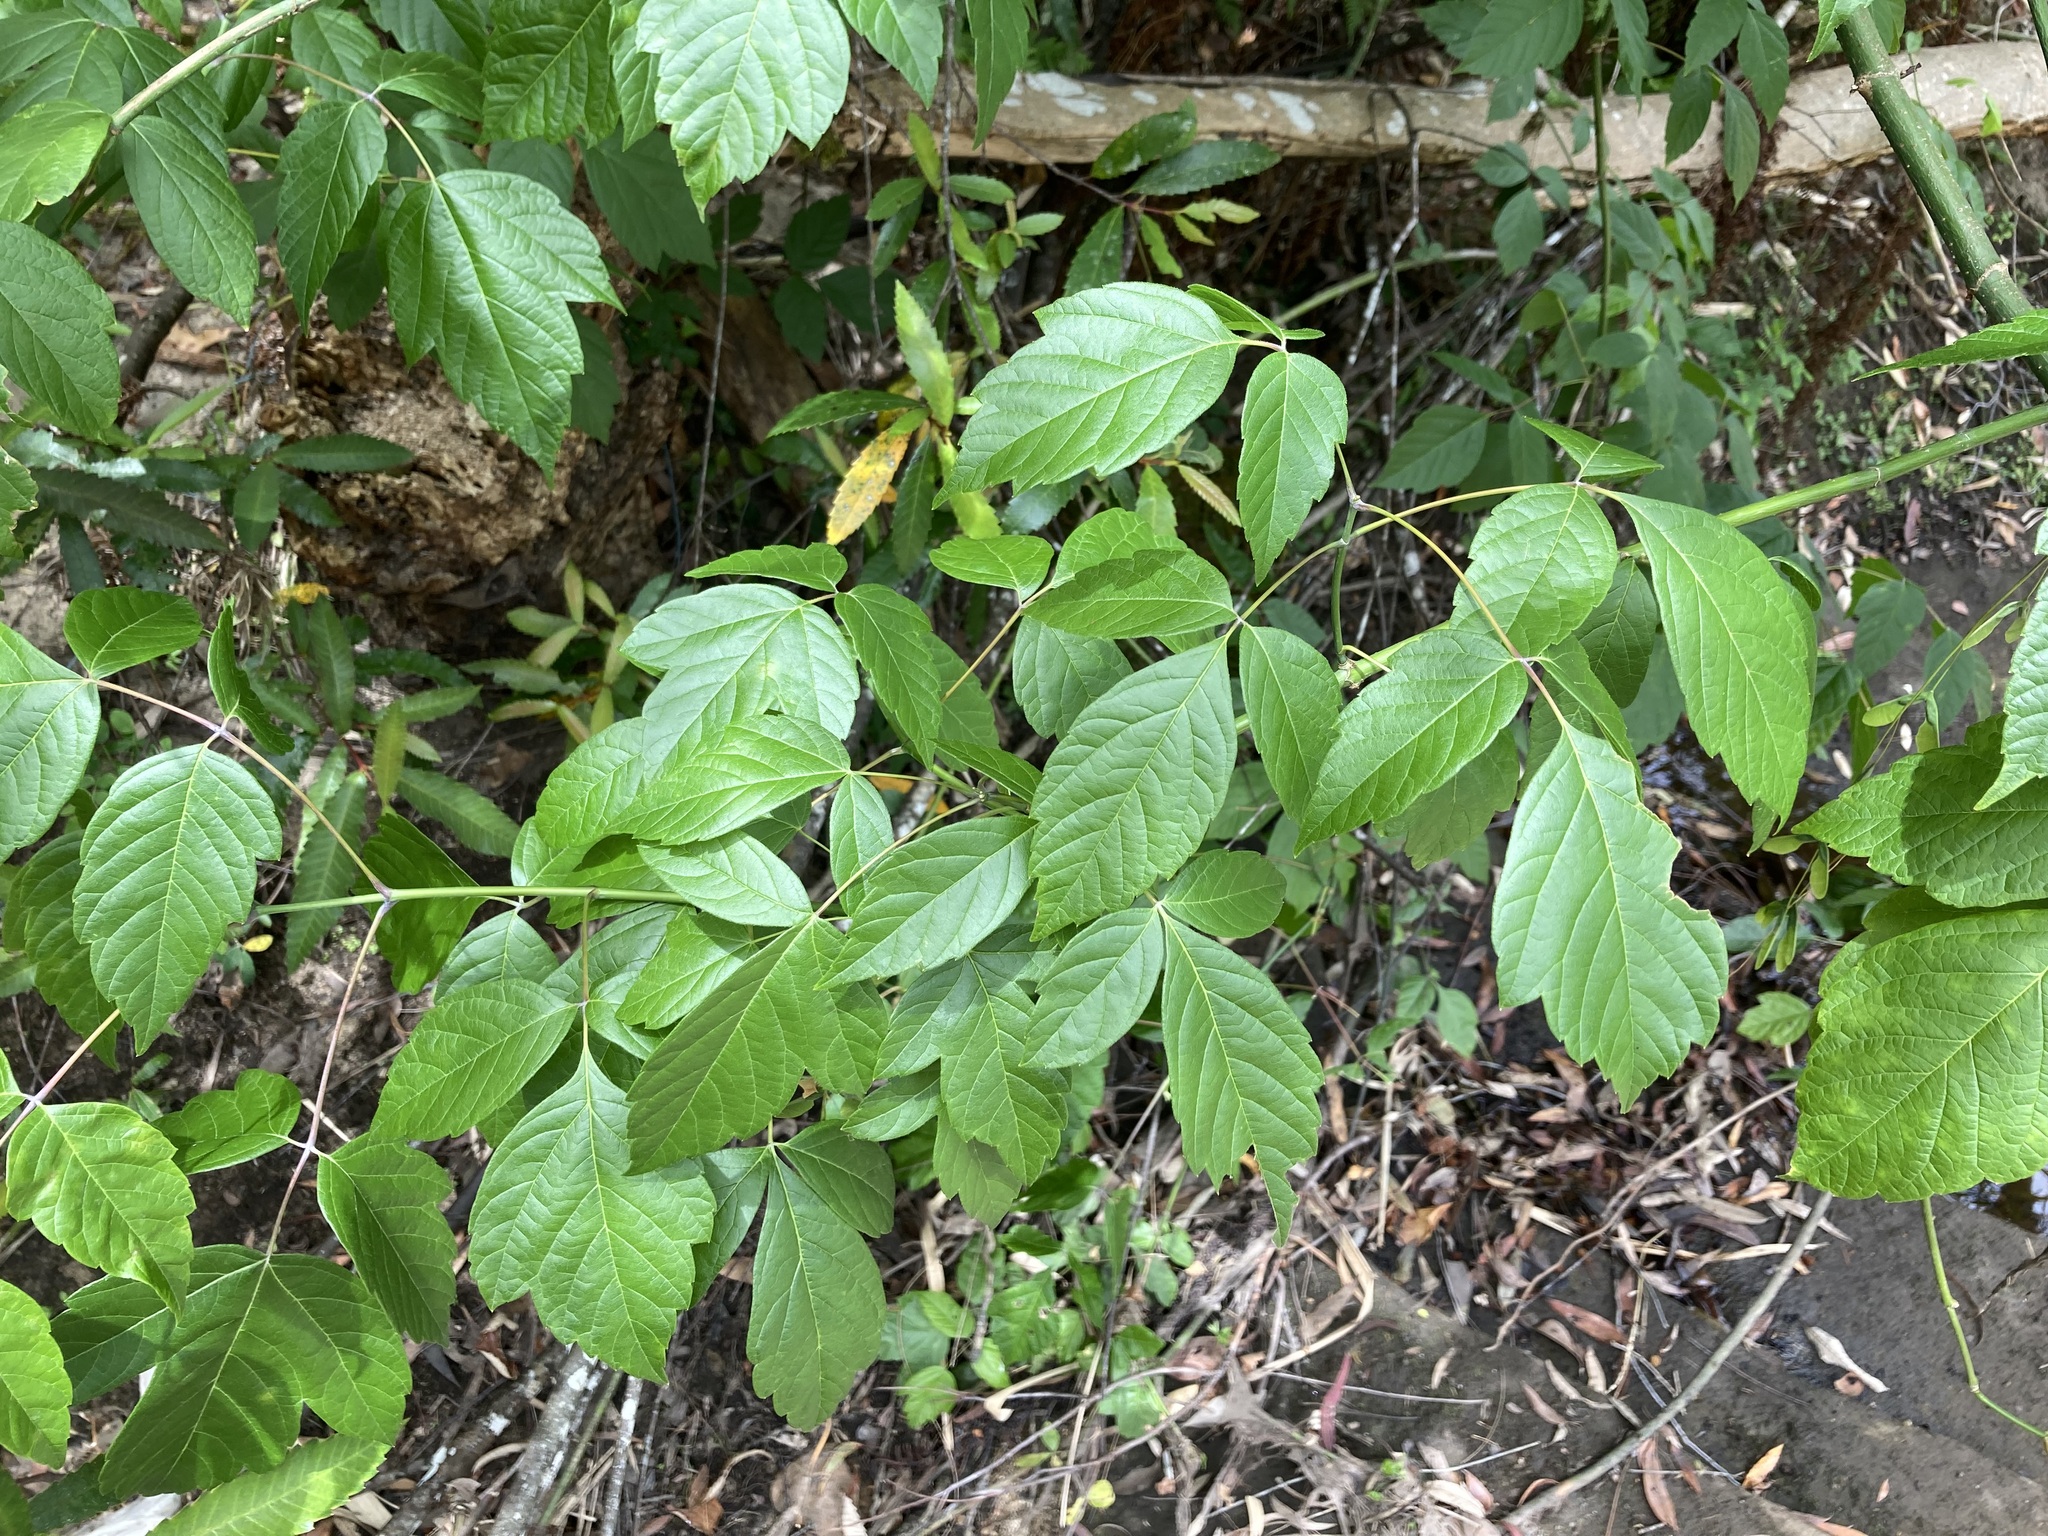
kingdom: Plantae
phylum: Tracheophyta
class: Magnoliopsida
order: Sapindales
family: Sapindaceae
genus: Acer
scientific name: Acer negundo
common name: Ashleaf maple
